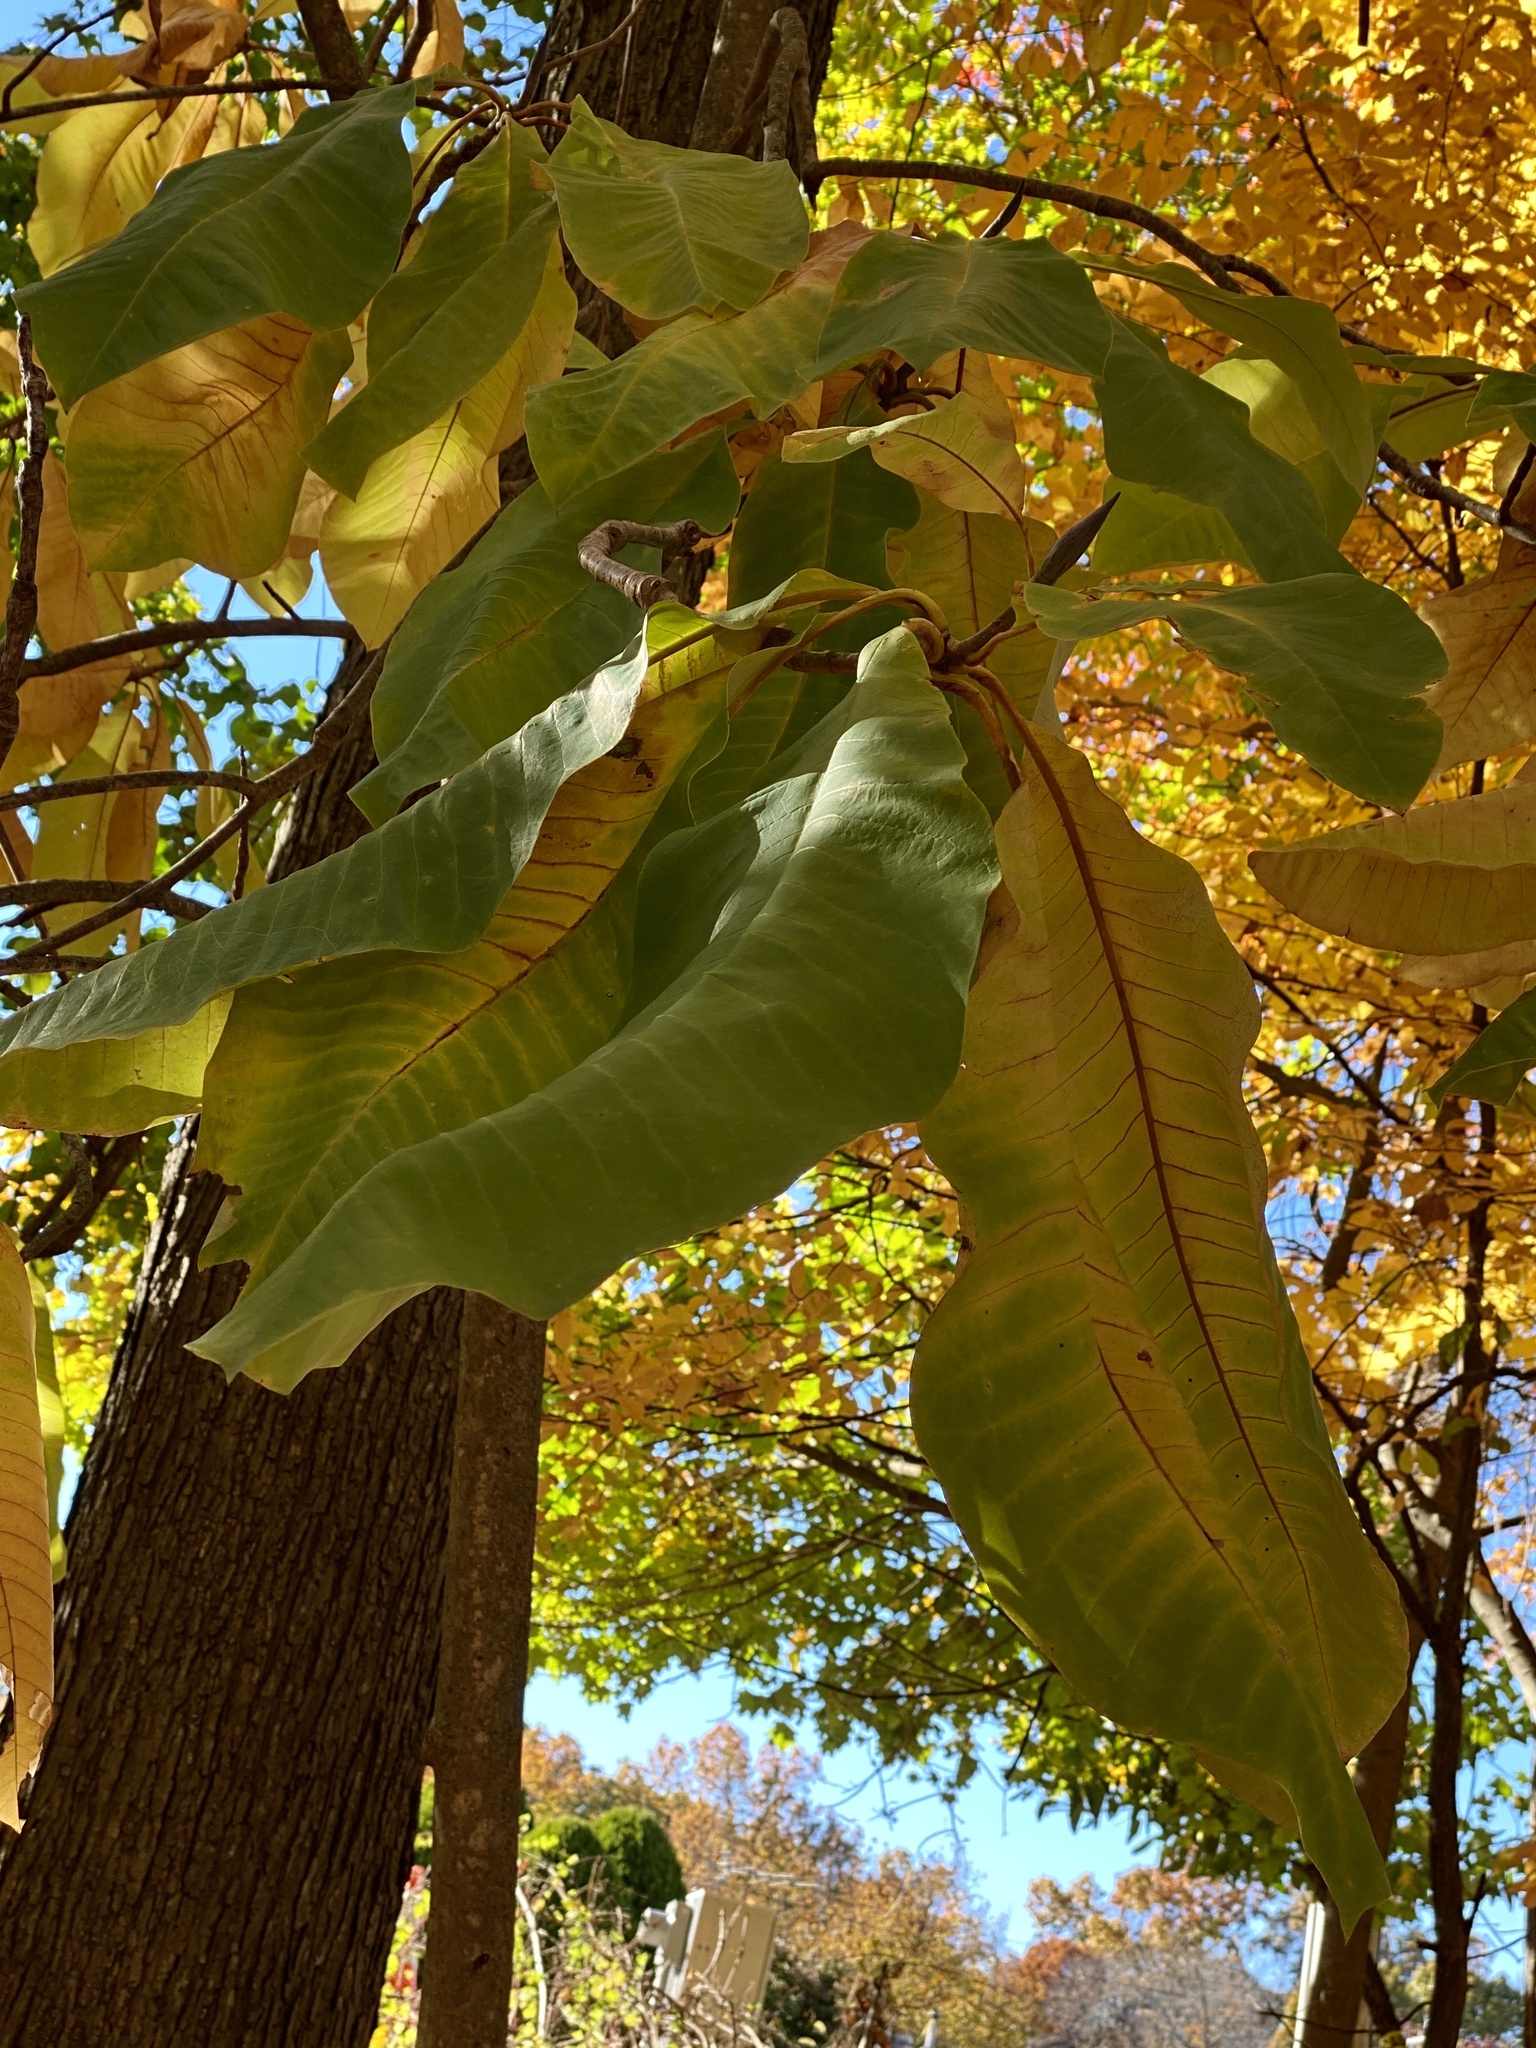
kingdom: Plantae
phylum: Tracheophyta
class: Magnoliopsida
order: Magnoliales
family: Magnoliaceae
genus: Magnolia
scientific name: Magnolia tripetala
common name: Umbrella magnolia
